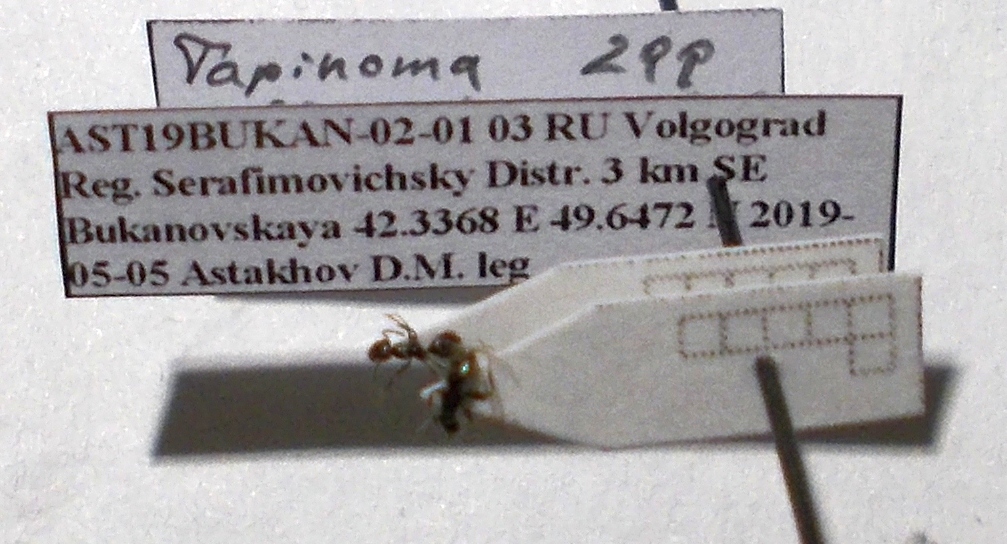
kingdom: Animalia
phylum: Arthropoda
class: Insecta
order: Hymenoptera
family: Formicidae
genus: Tapinoma
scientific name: Tapinoma subboreale
